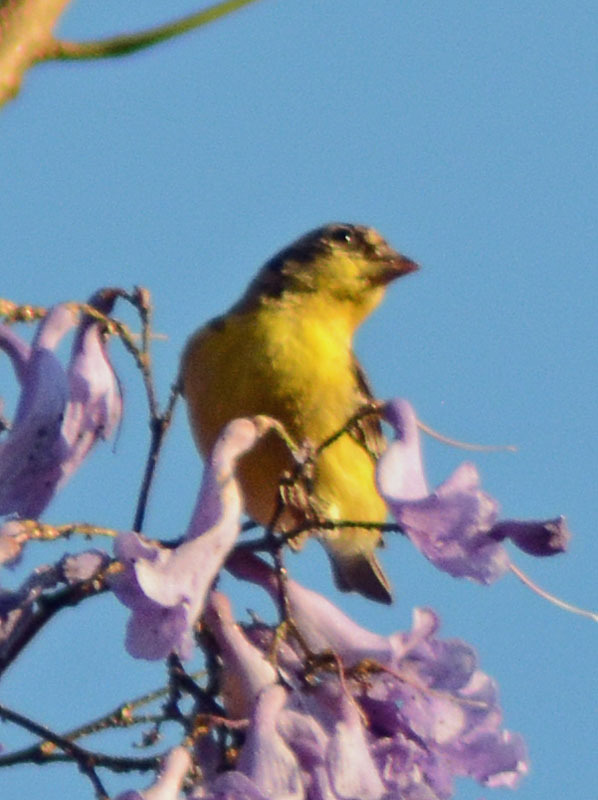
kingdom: Animalia
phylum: Chordata
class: Aves
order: Passeriformes
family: Fringillidae
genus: Spinus
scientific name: Spinus psaltria
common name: Lesser goldfinch
